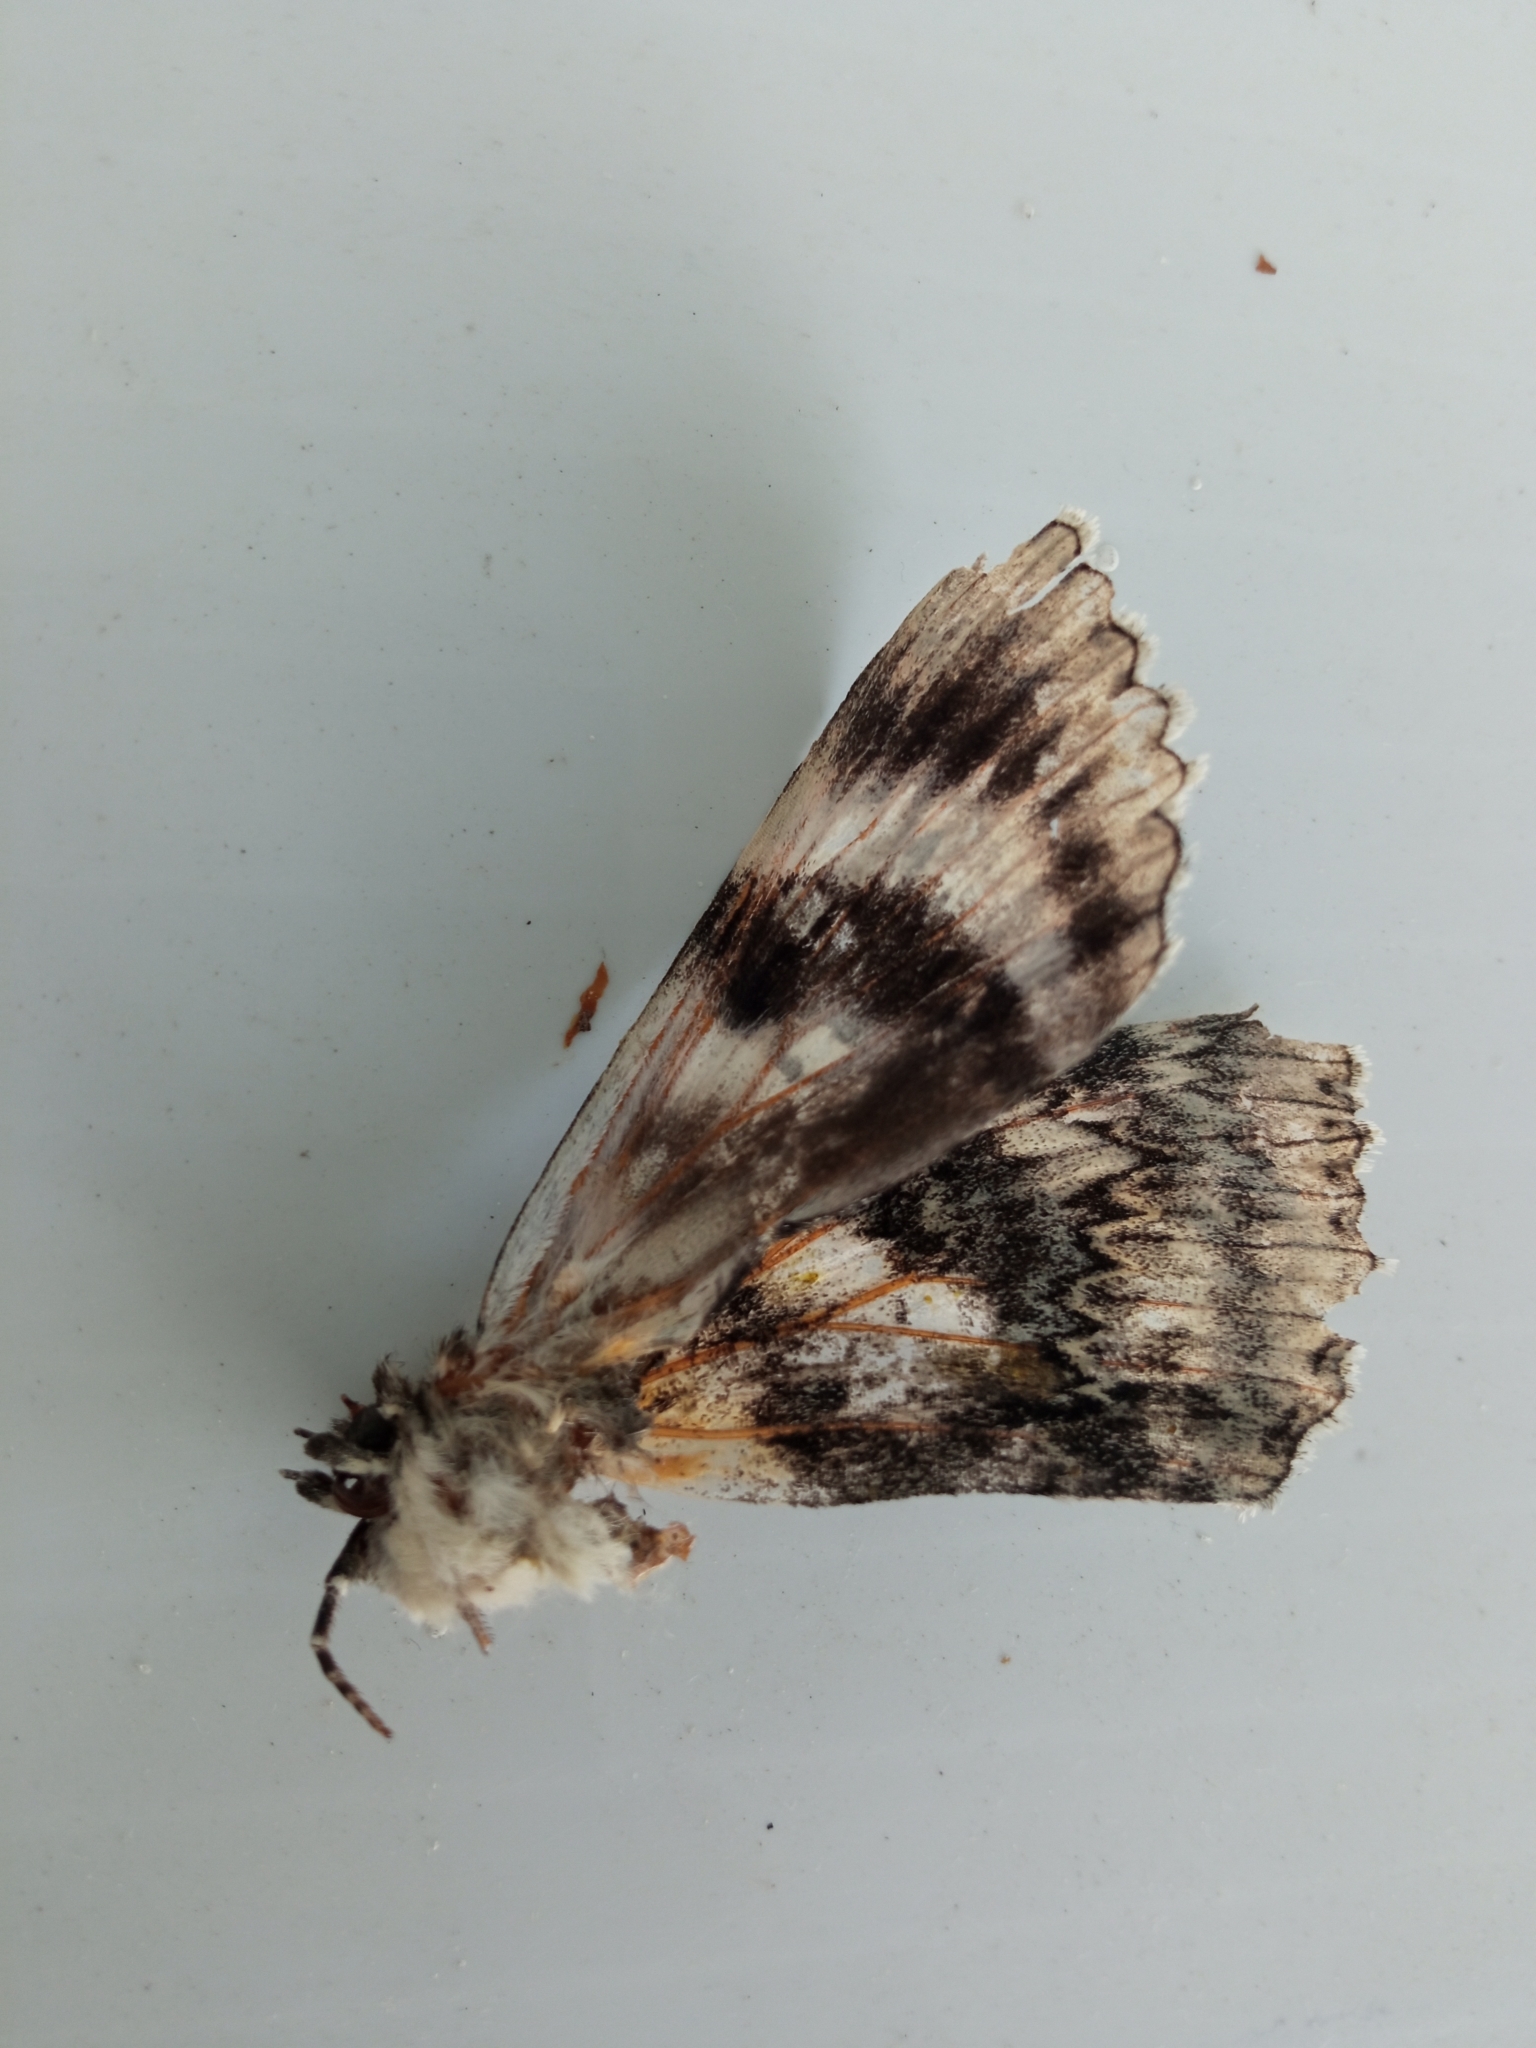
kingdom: Animalia
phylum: Arthropoda
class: Insecta
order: Lepidoptera
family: Erebidae
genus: Catocala
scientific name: Catocala fraxini
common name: Clifden nonpareil
